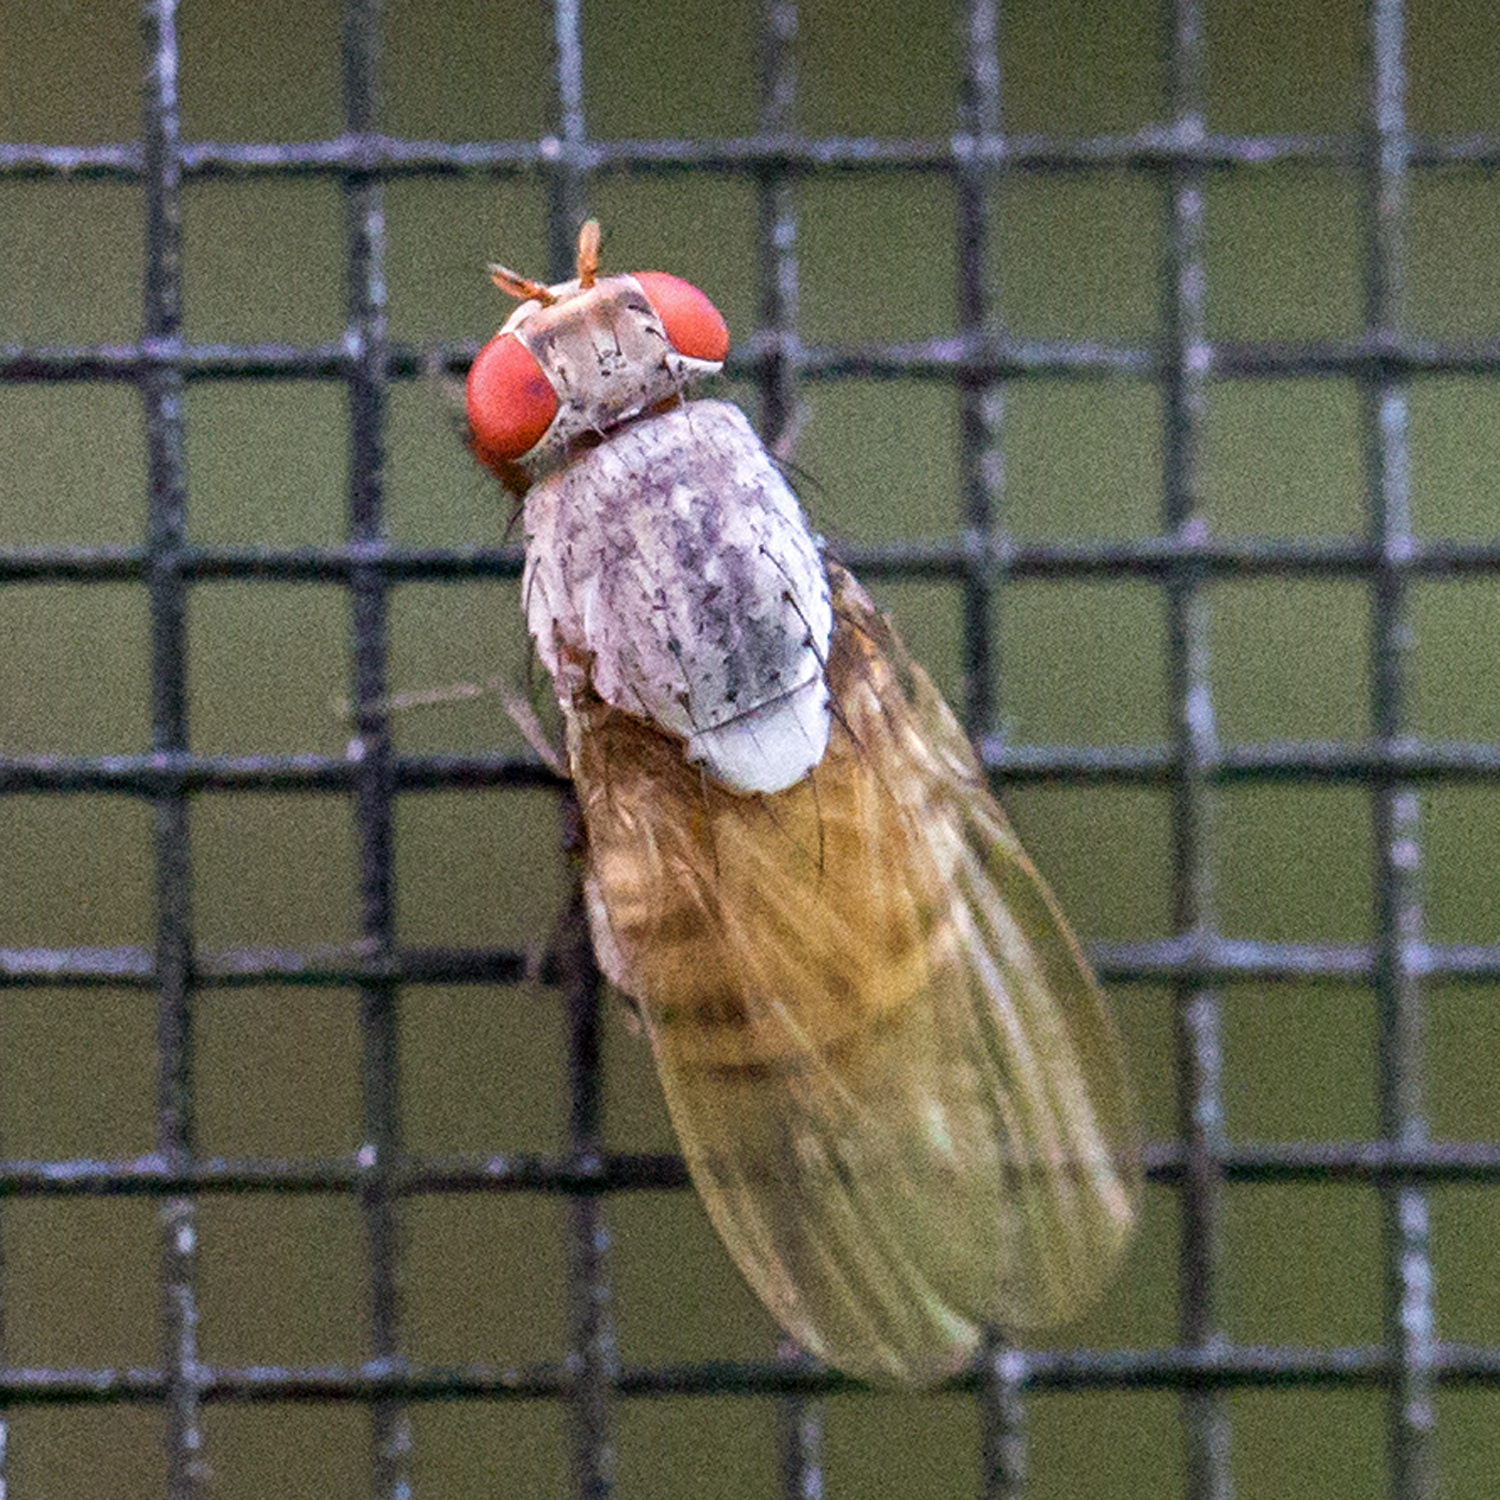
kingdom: Animalia
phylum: Arthropoda
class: Insecta
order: Diptera
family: Lauxaniidae
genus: Minettia
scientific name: Minettia magna
